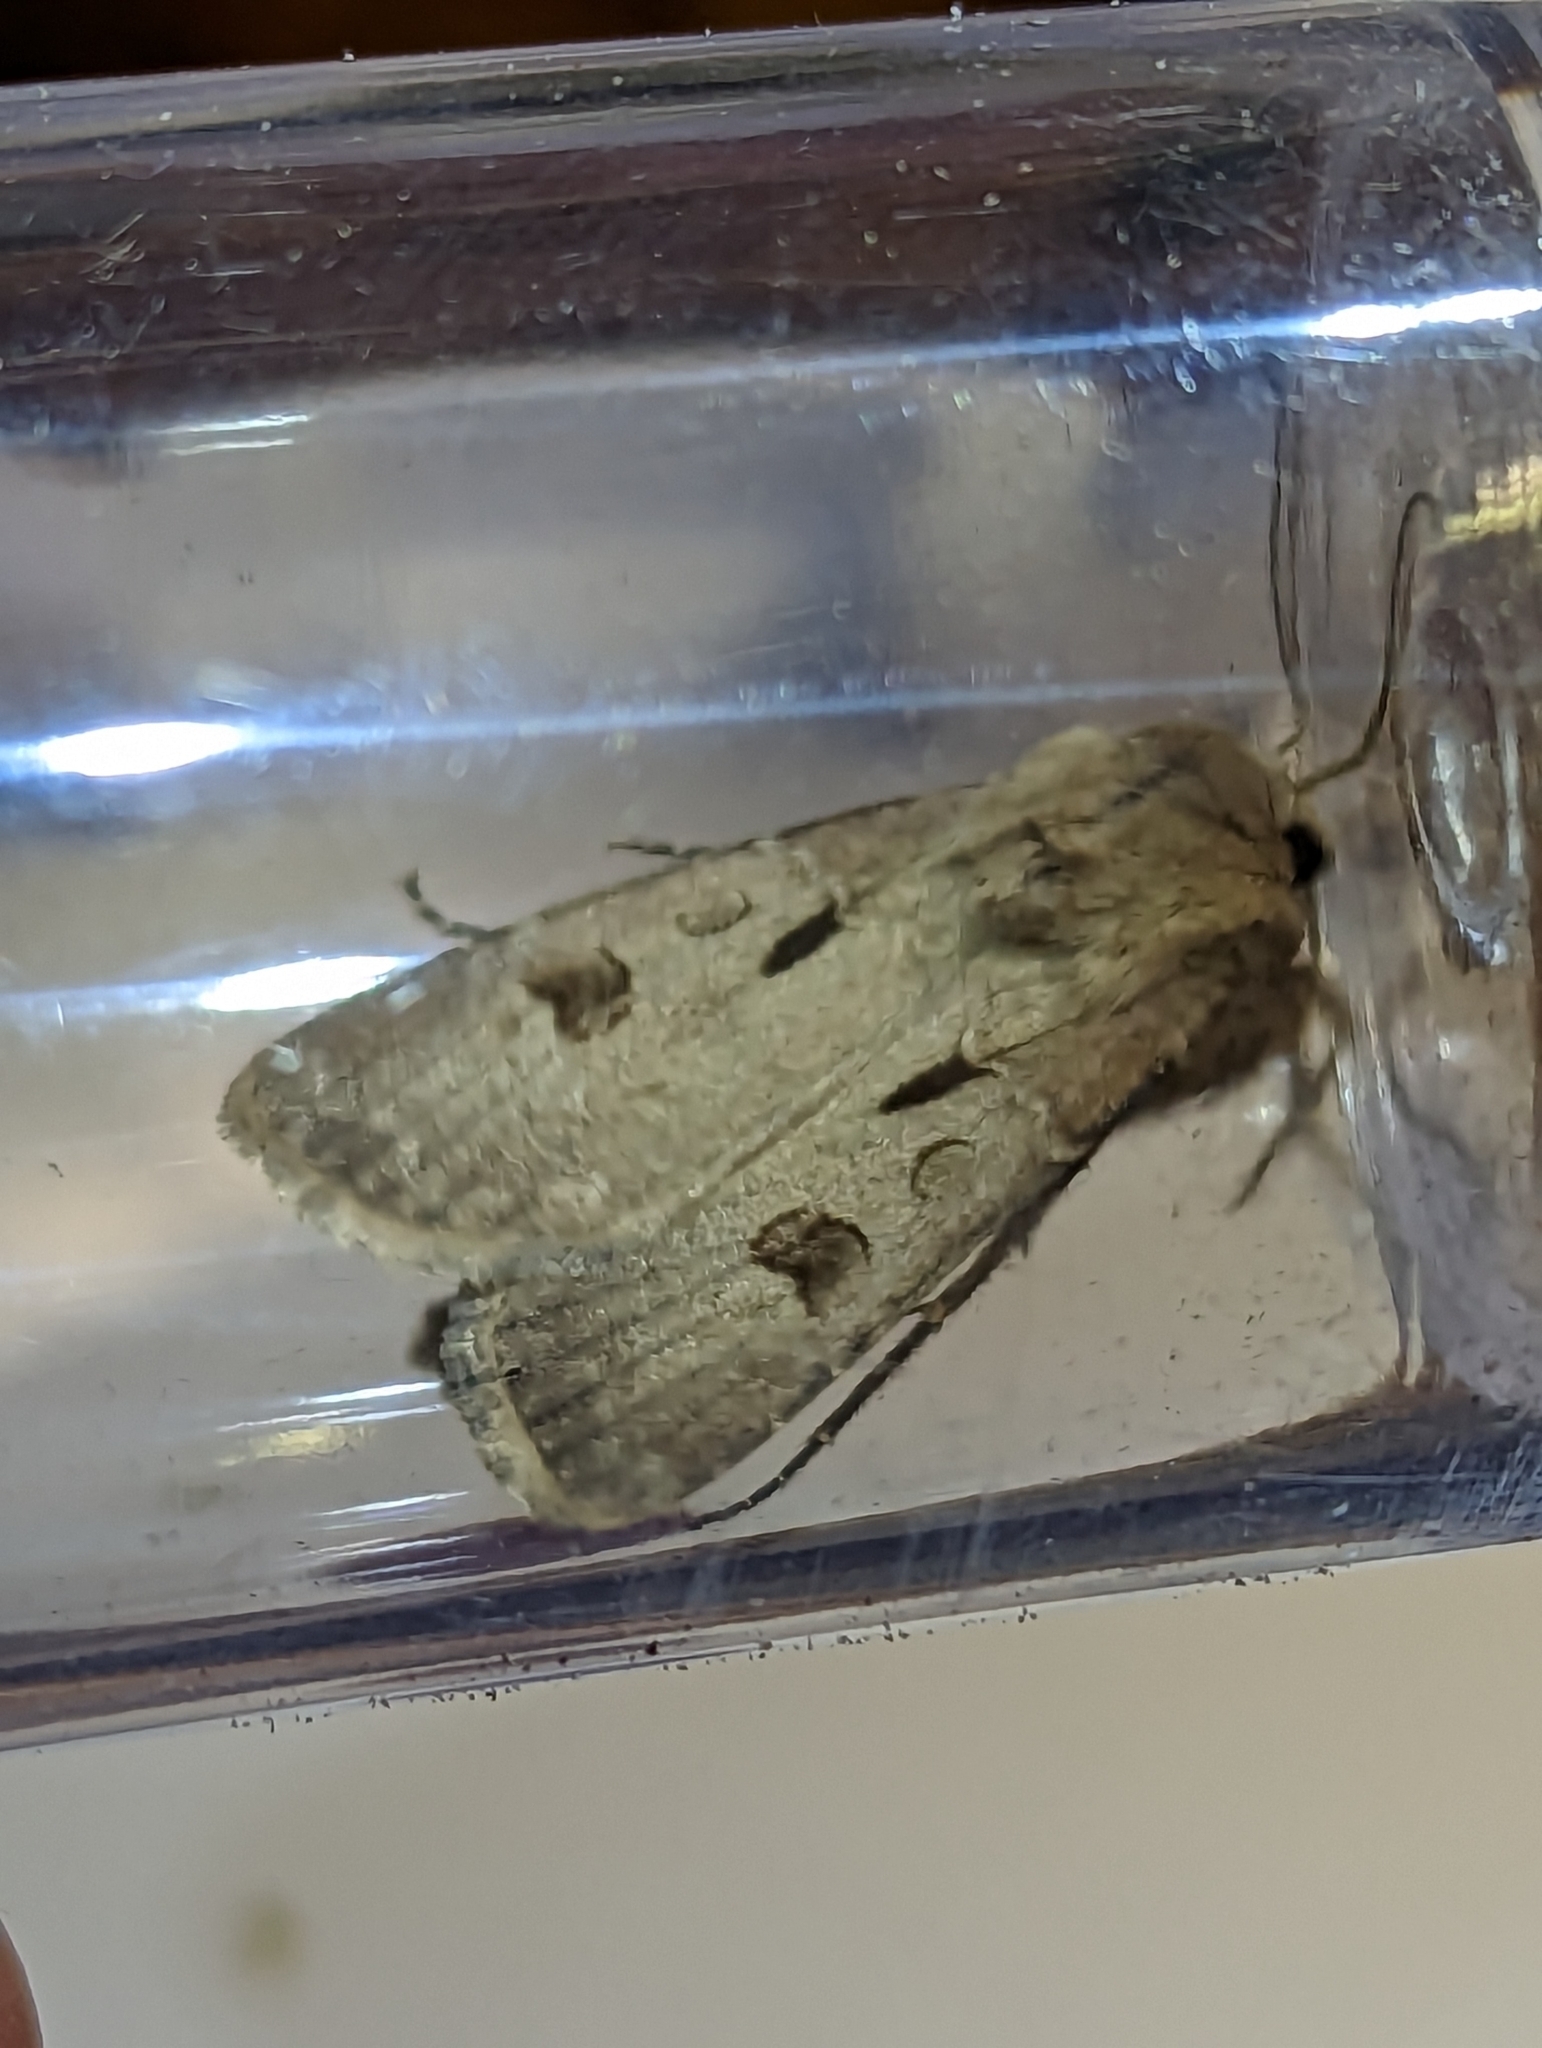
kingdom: Animalia
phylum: Arthropoda
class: Insecta
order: Lepidoptera
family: Noctuidae
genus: Agrotis
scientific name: Agrotis exclamationis
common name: Heart and dart
